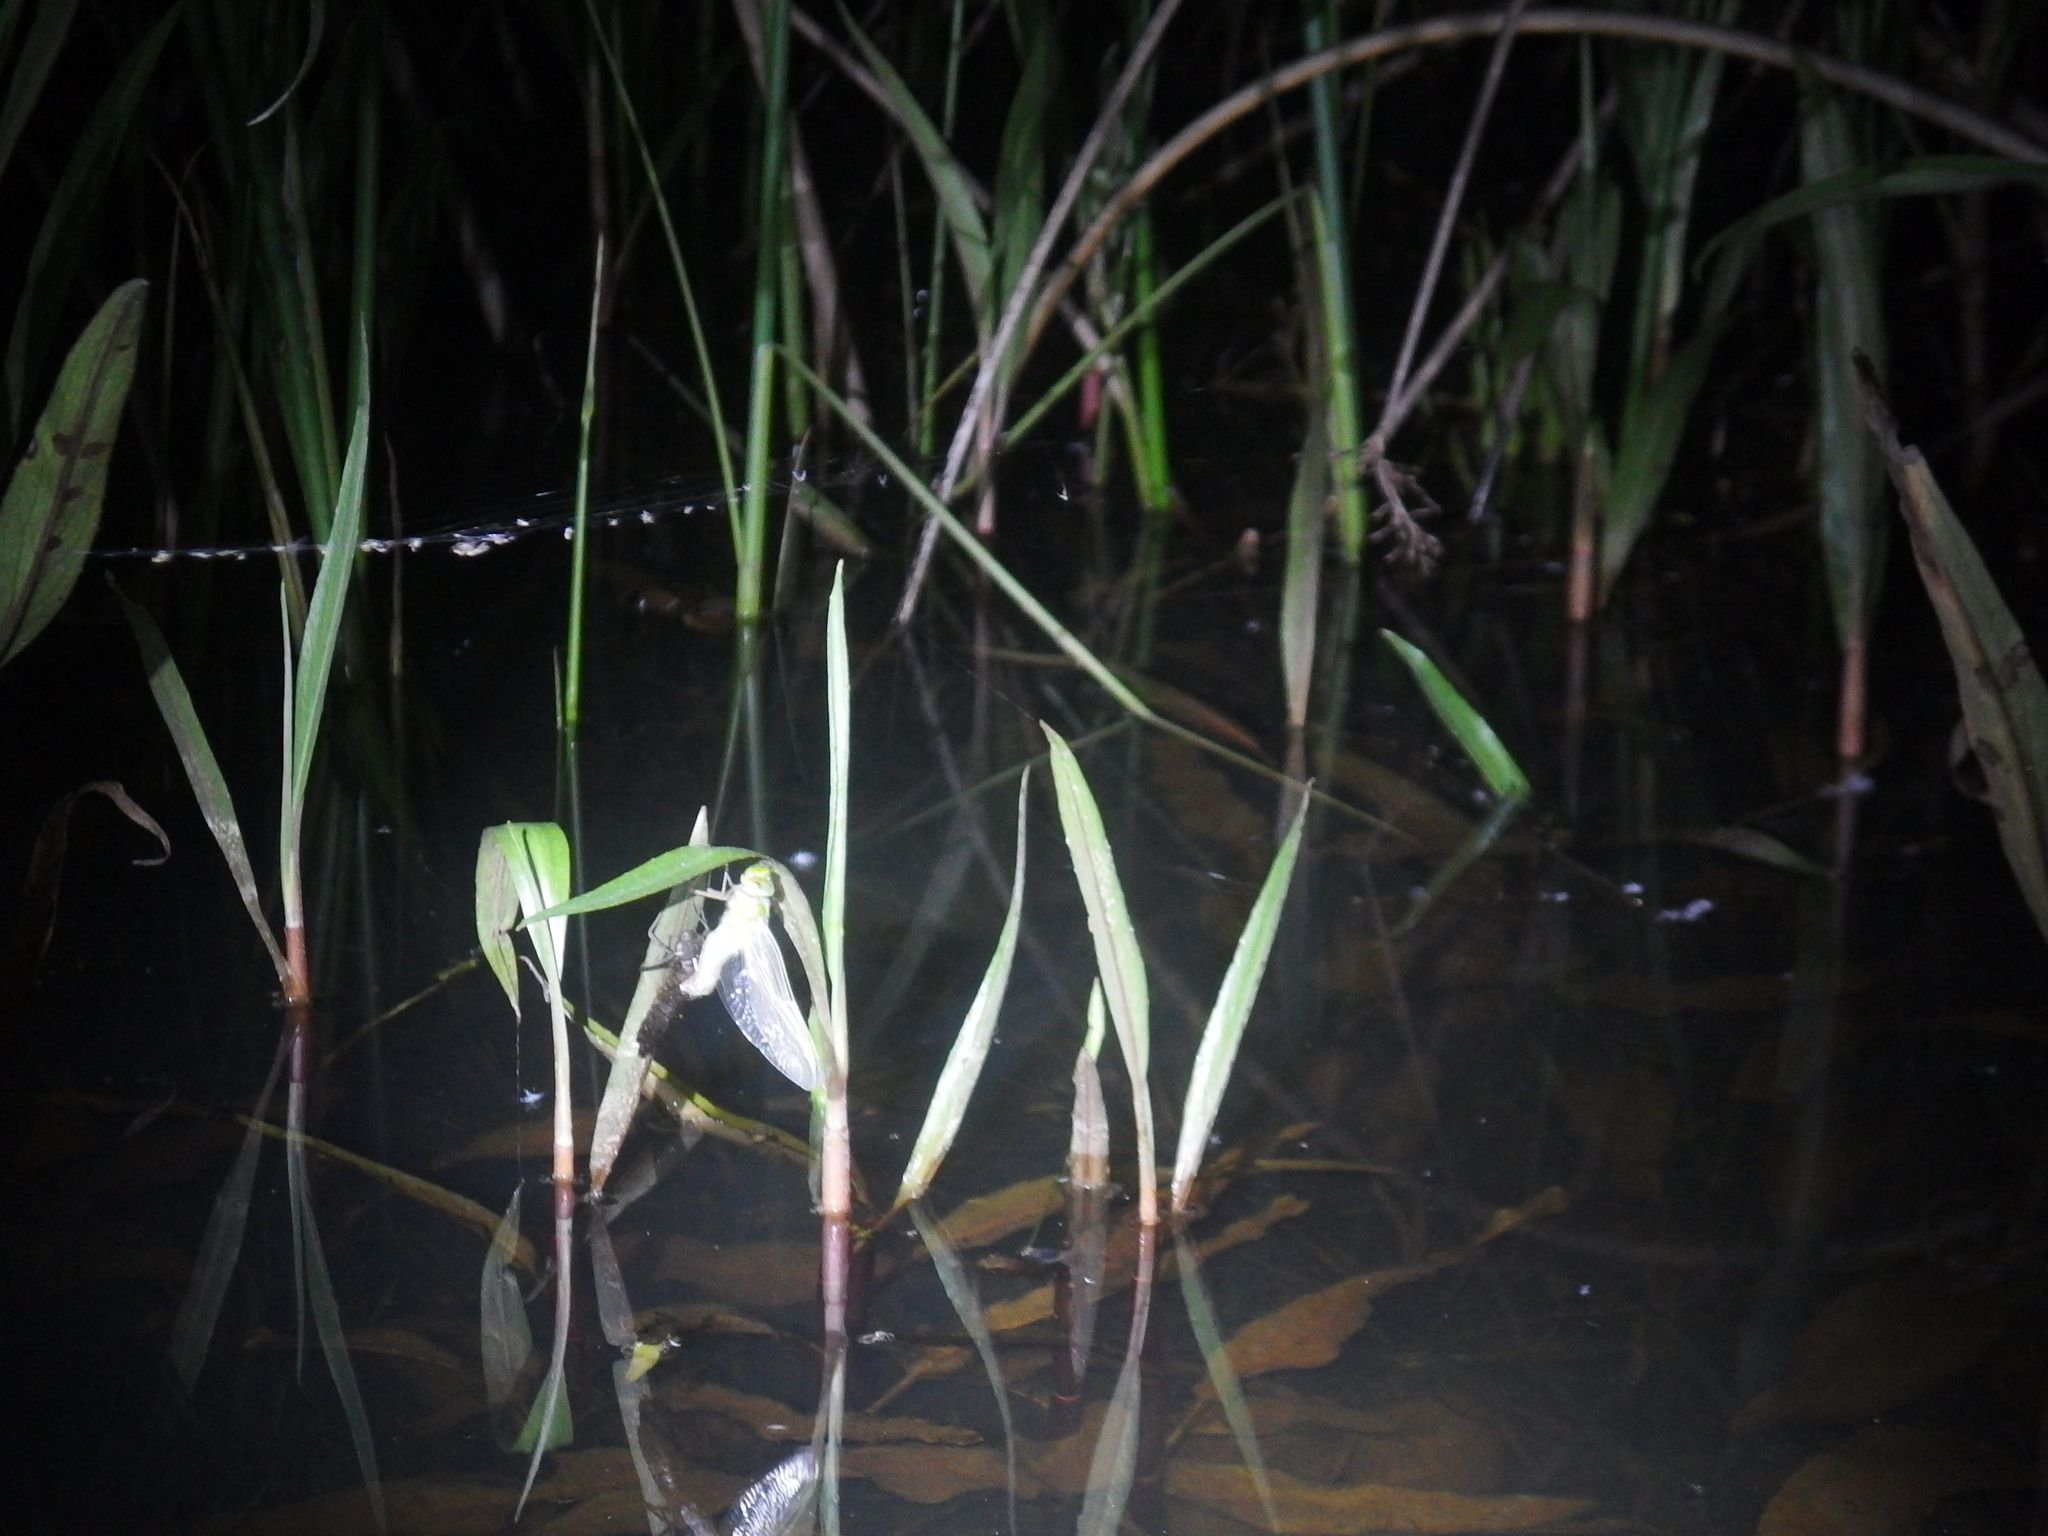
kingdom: Animalia
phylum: Arthropoda
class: Insecta
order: Odonata
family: Aeshnidae
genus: Anax
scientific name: Anax imperator
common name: Emperor dragonfly
